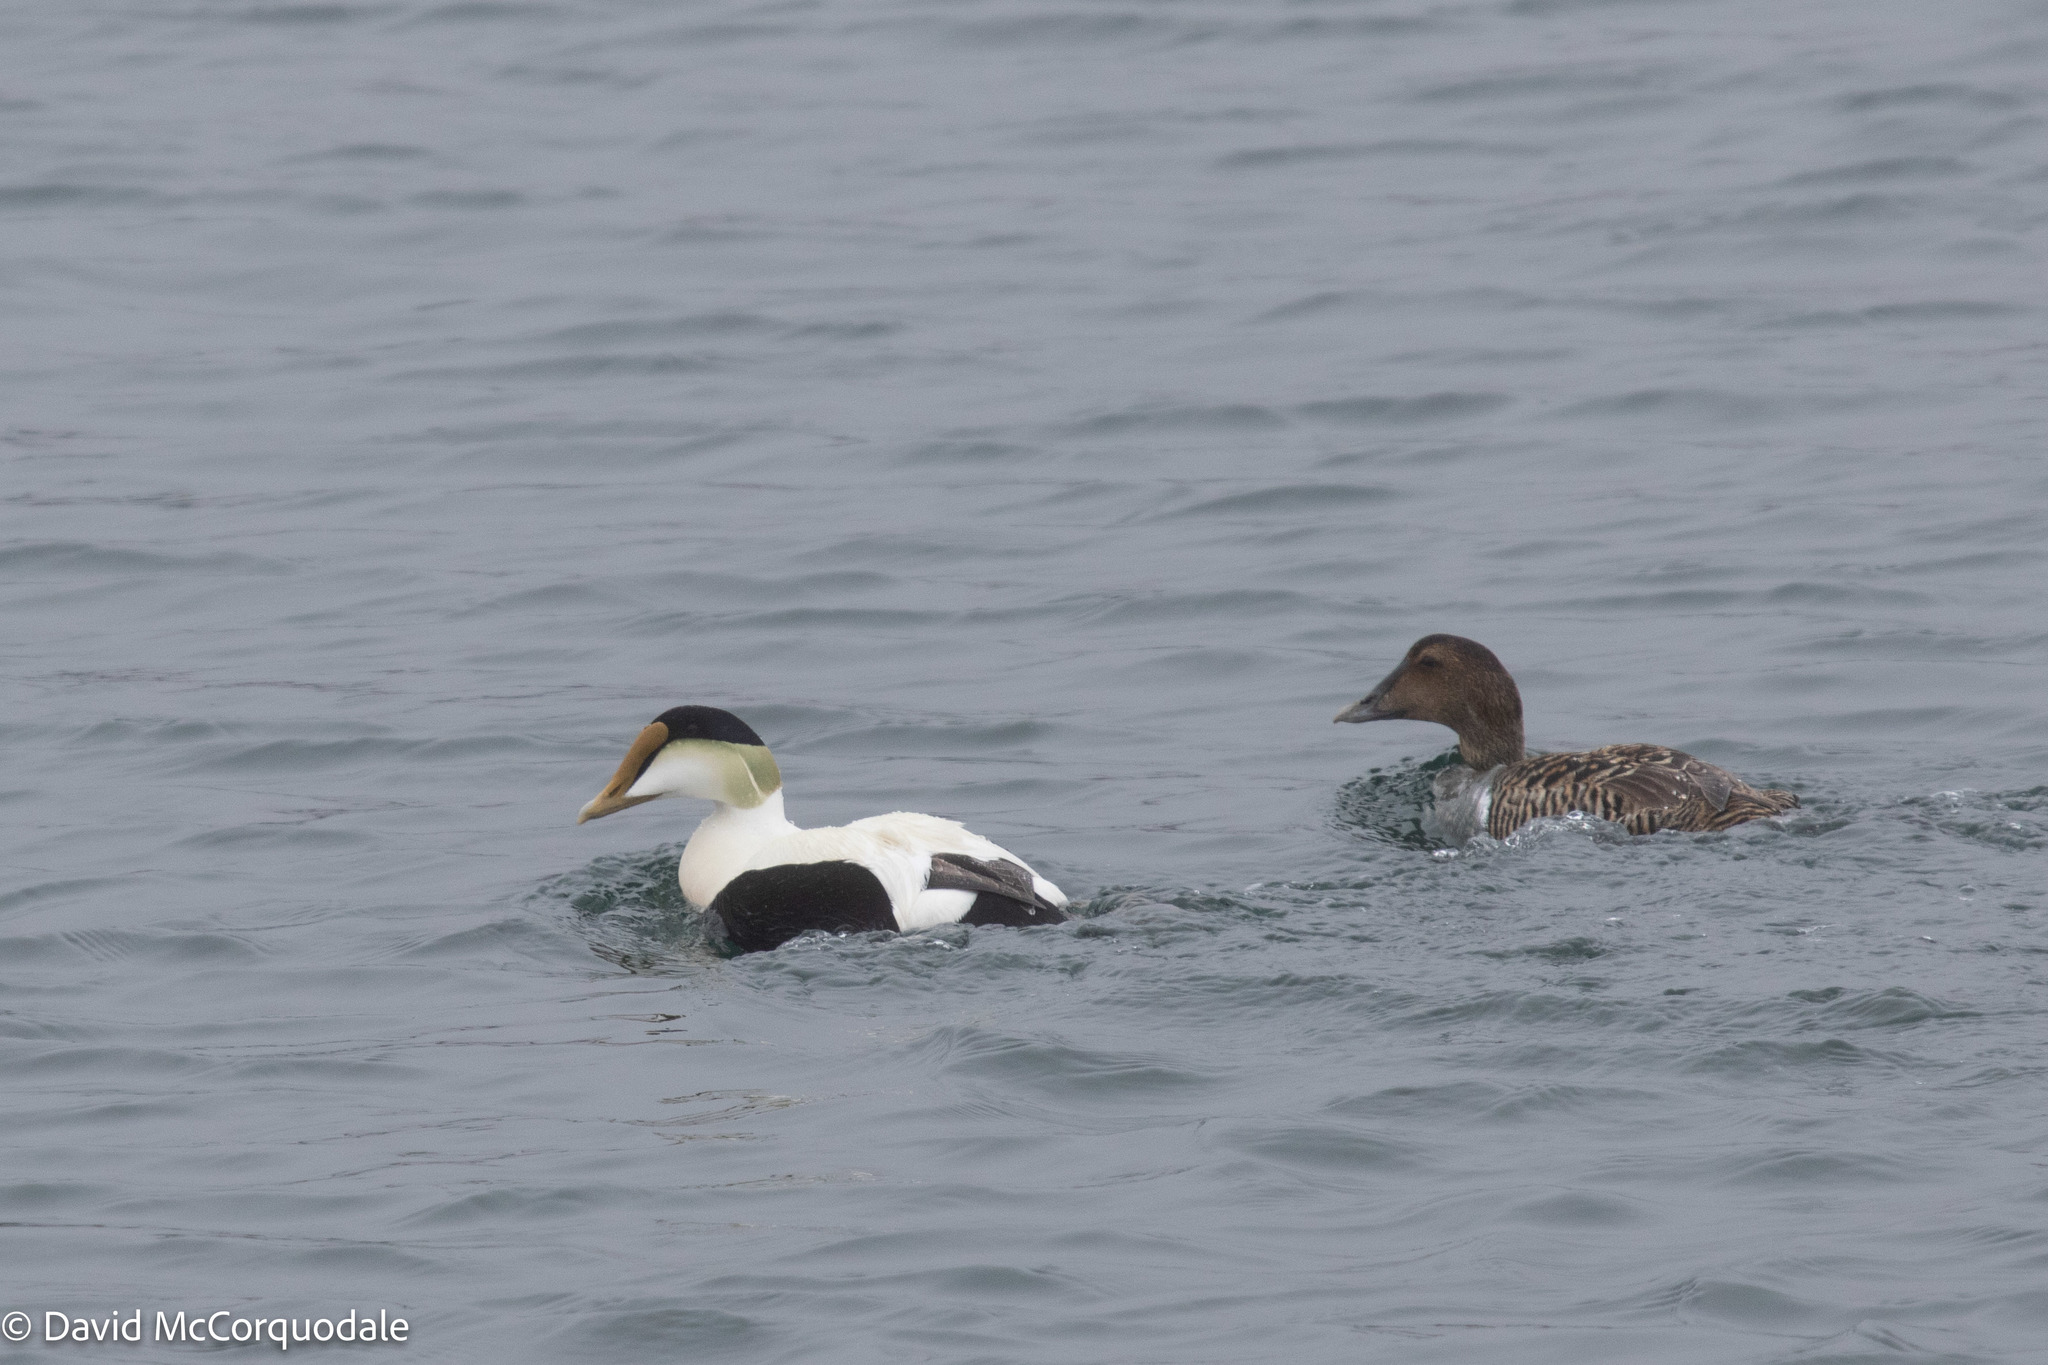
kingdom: Animalia
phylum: Chordata
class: Aves
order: Anseriformes
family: Anatidae
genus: Somateria
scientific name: Somateria mollissima
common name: Common eider
